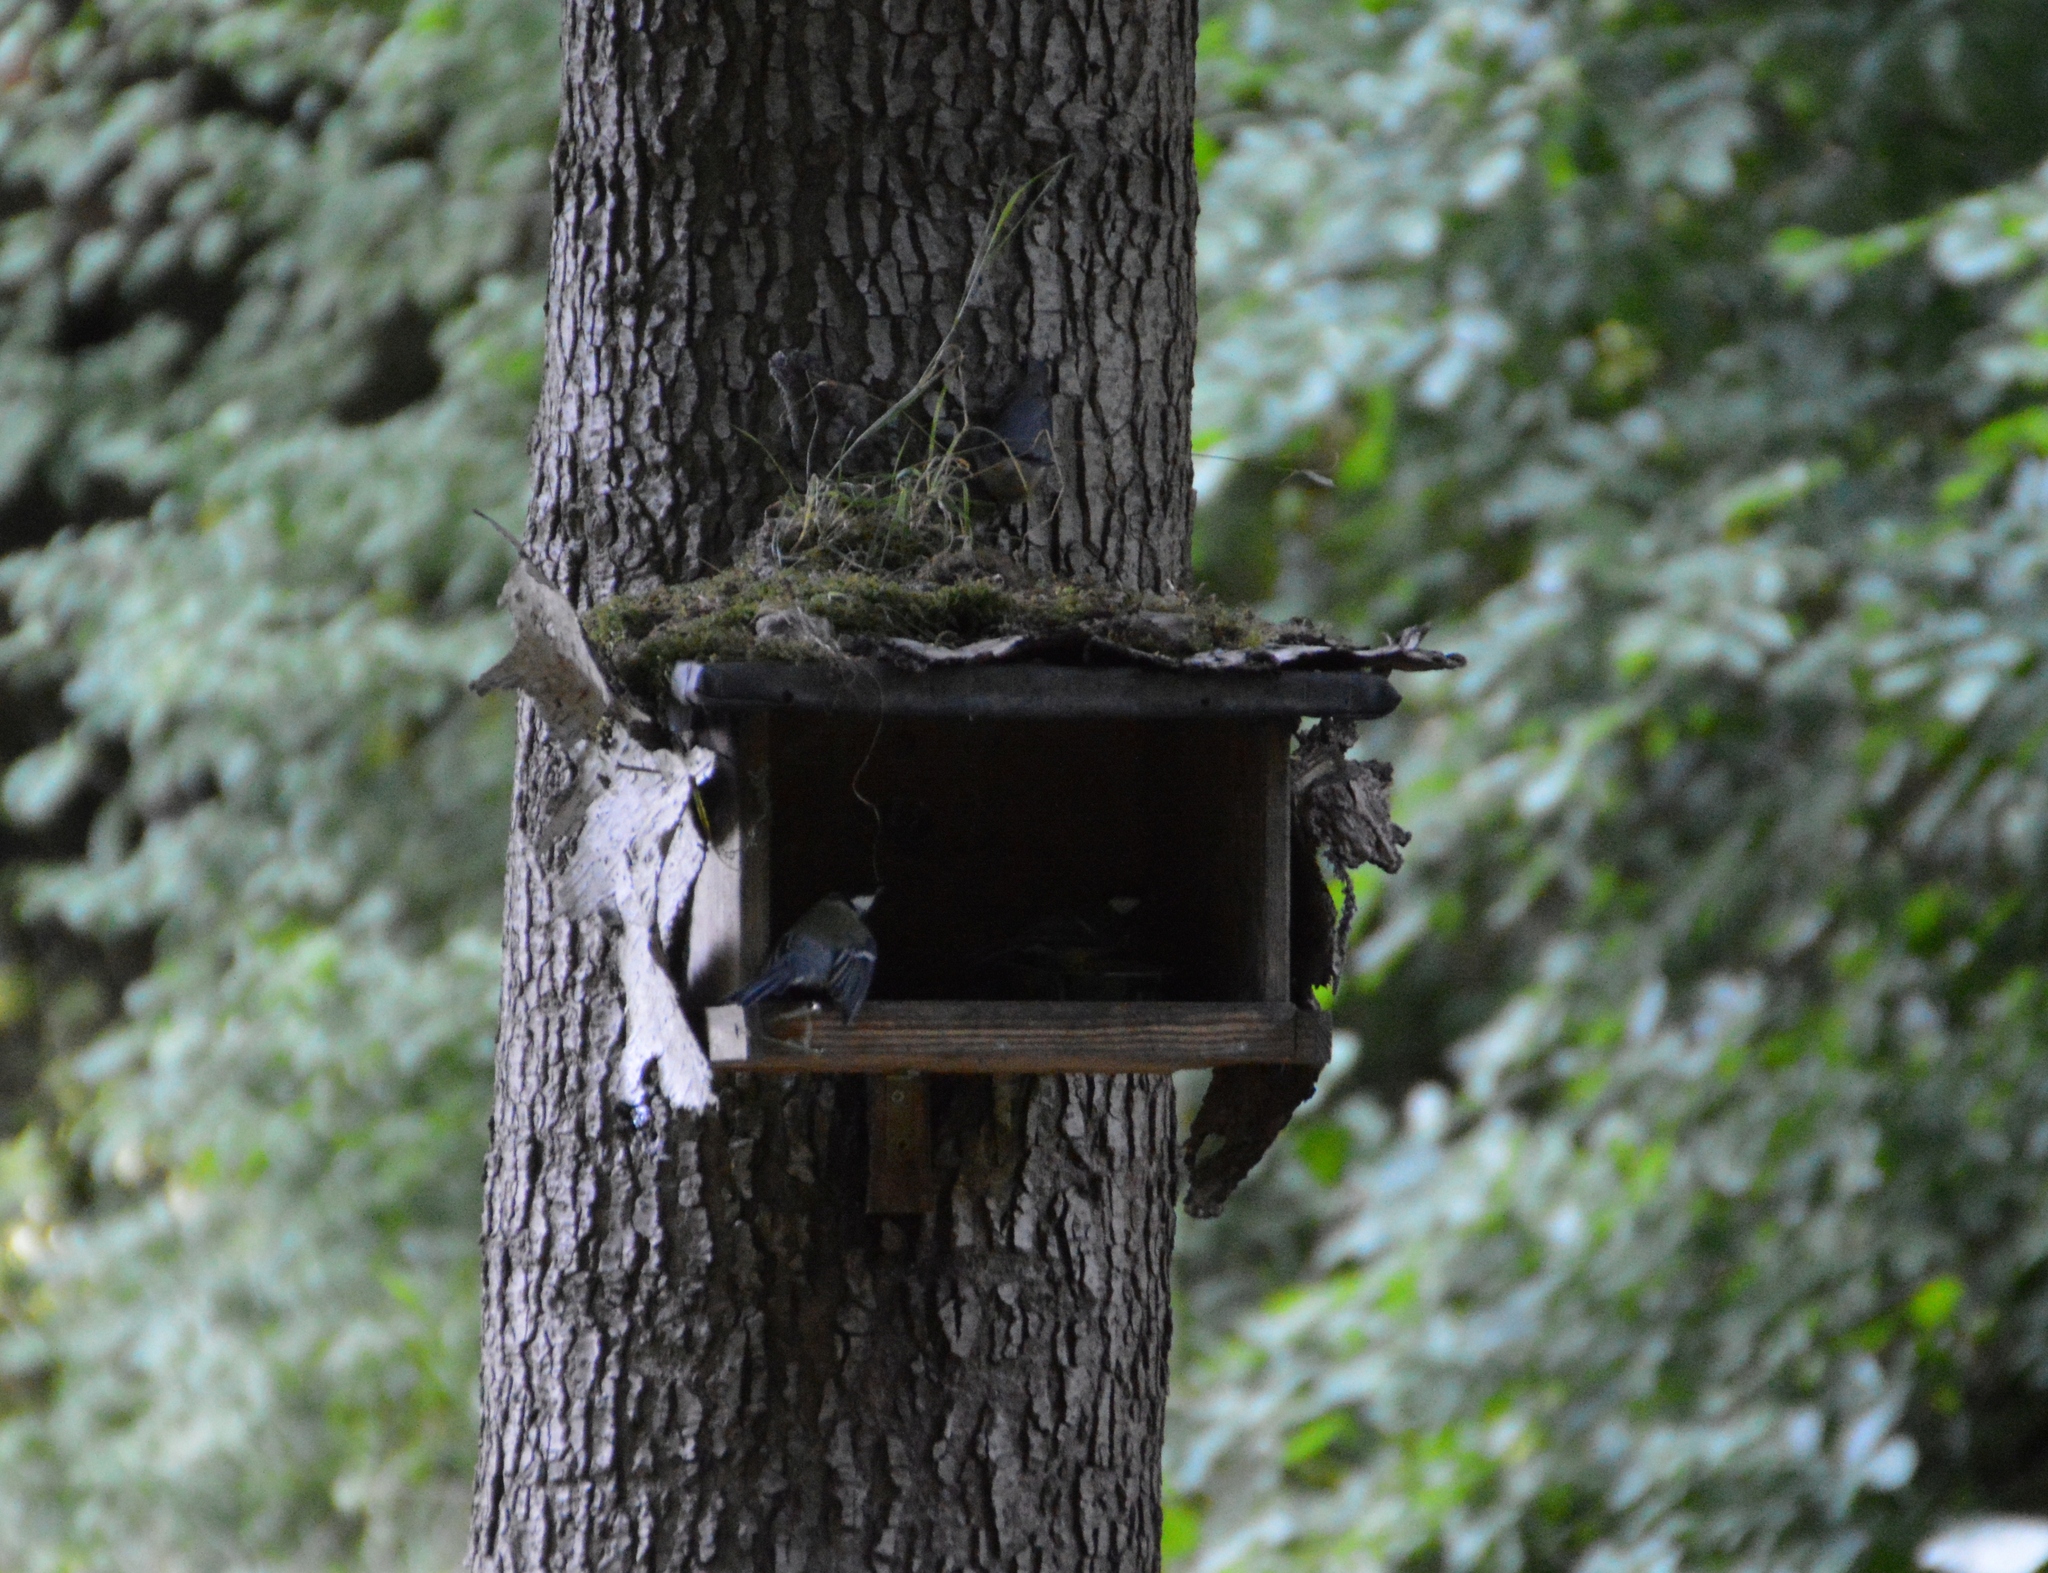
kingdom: Animalia
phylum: Chordata
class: Aves
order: Passeriformes
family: Paridae
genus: Parus
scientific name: Parus major
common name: Great tit
